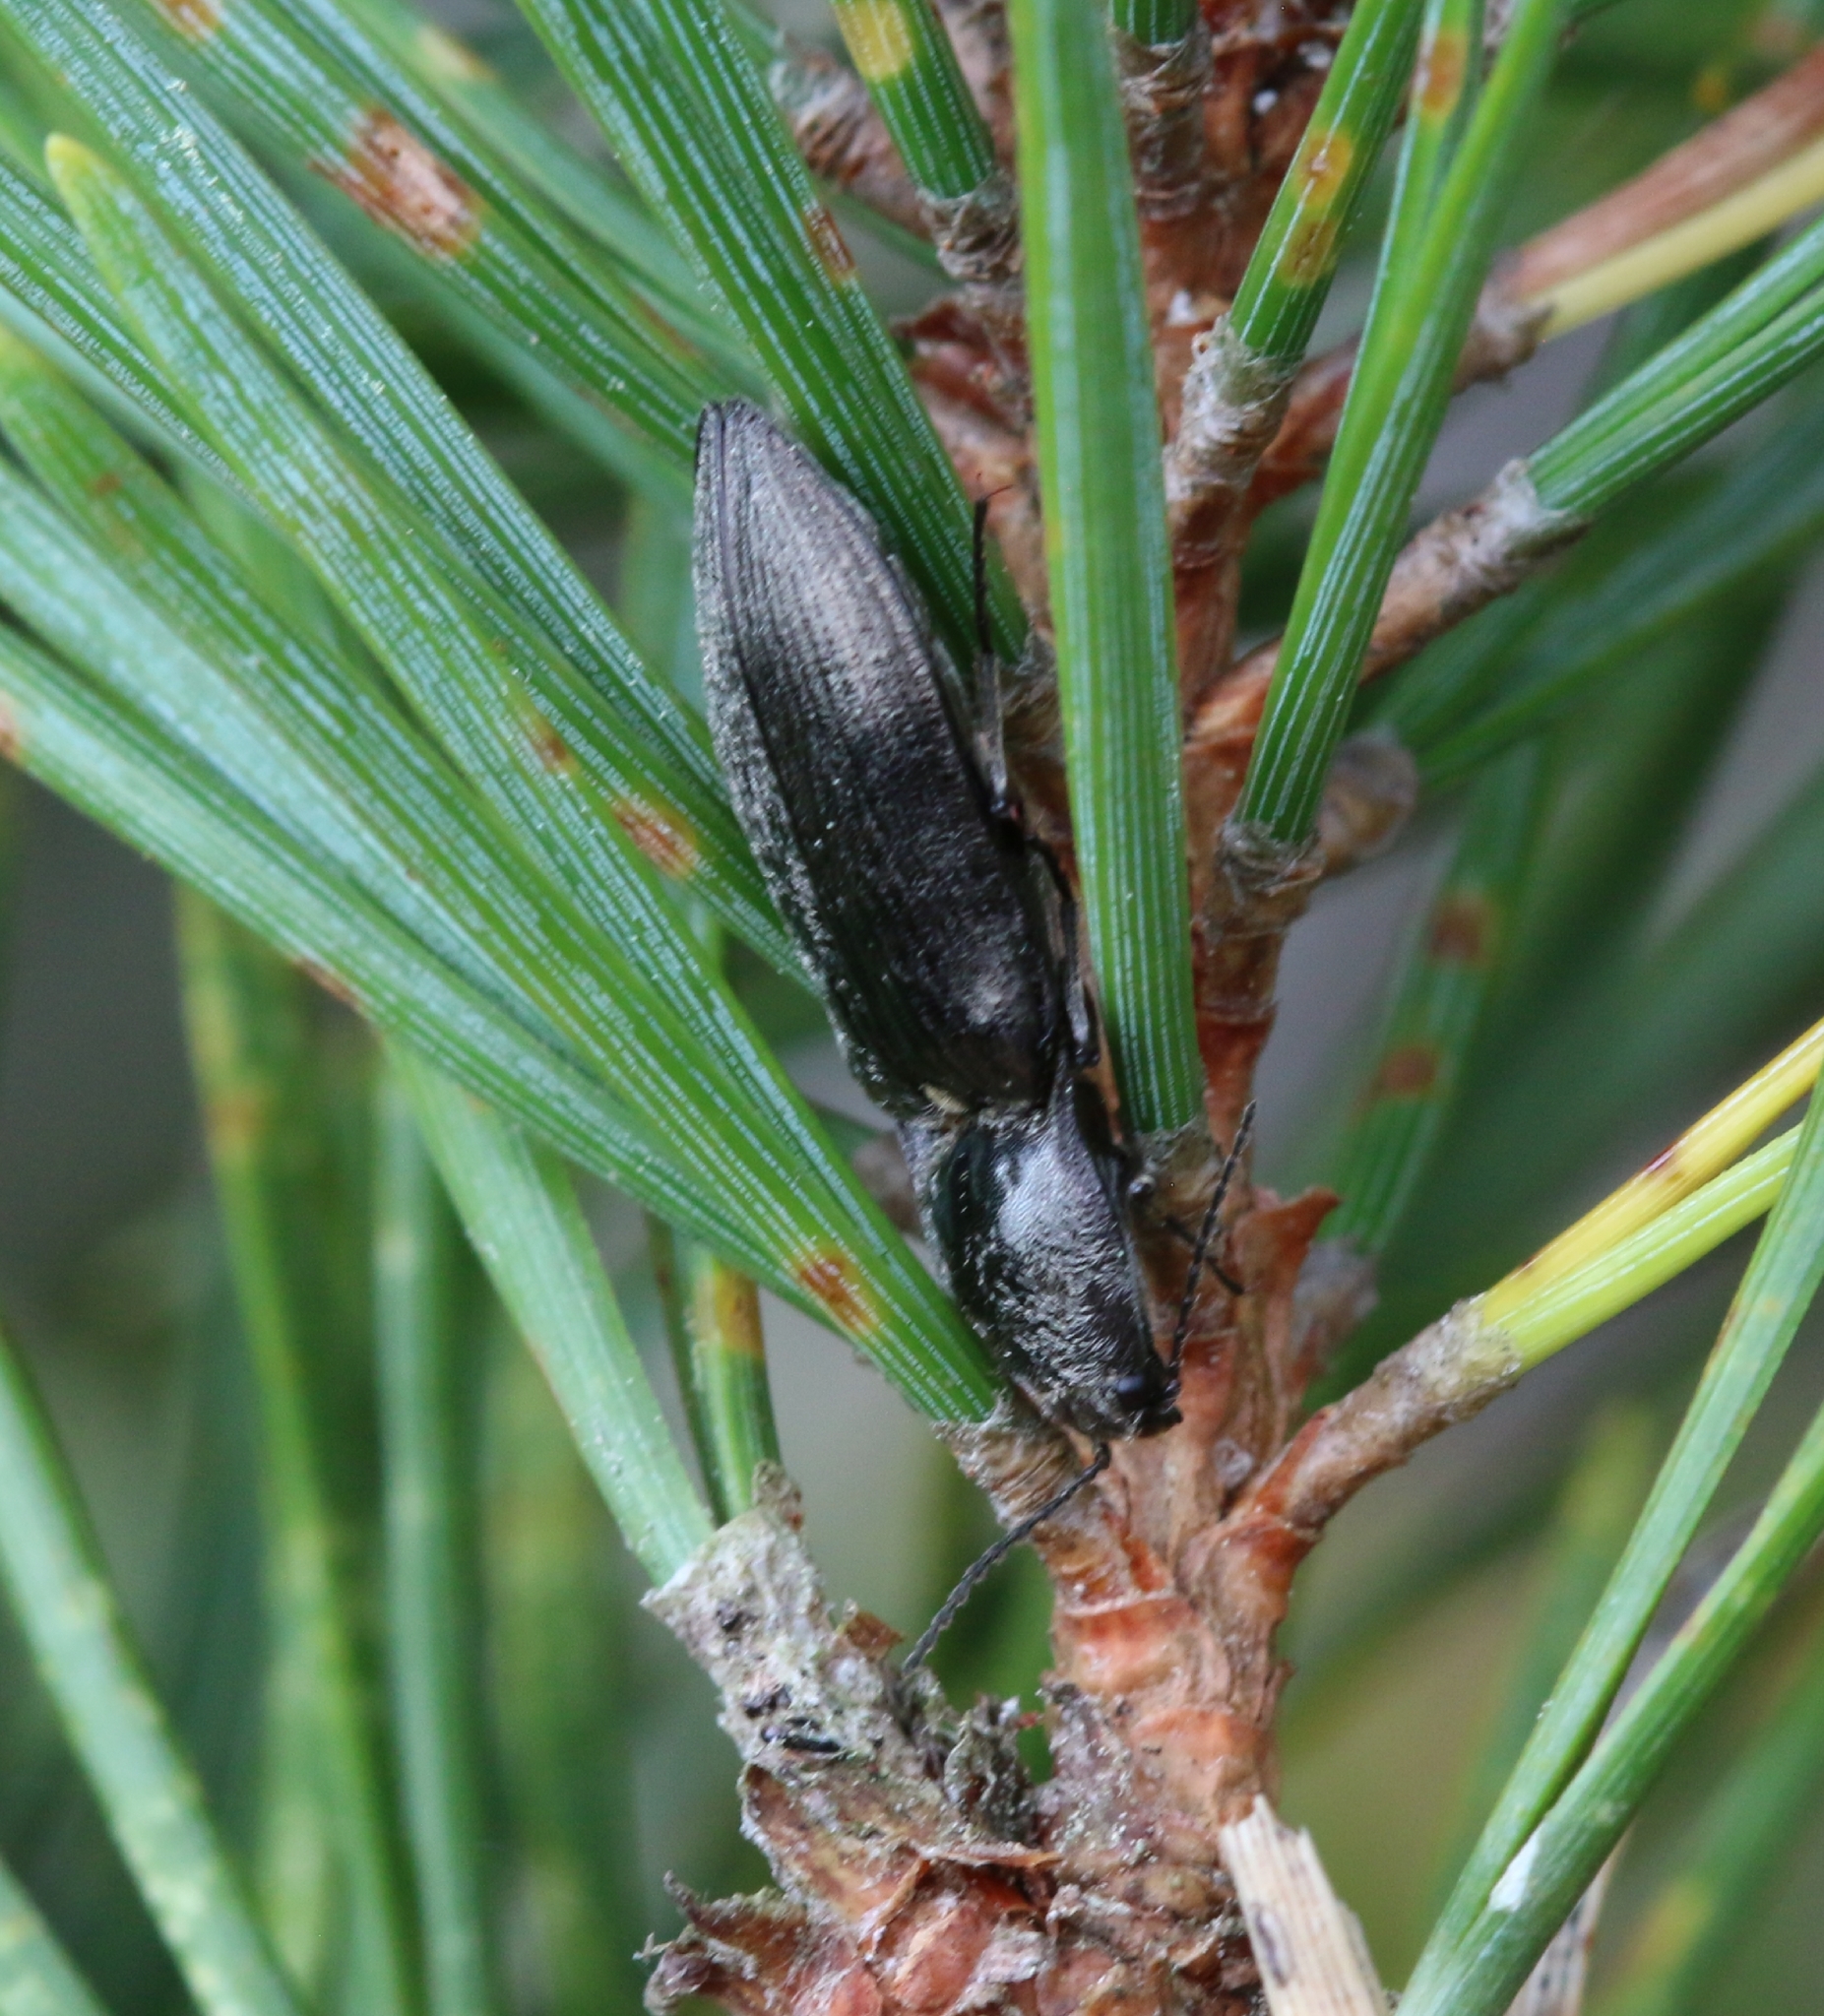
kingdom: Animalia
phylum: Arthropoda
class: Insecta
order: Coleoptera
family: Elateridae
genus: Paraphotistus
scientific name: Paraphotistus impressus
